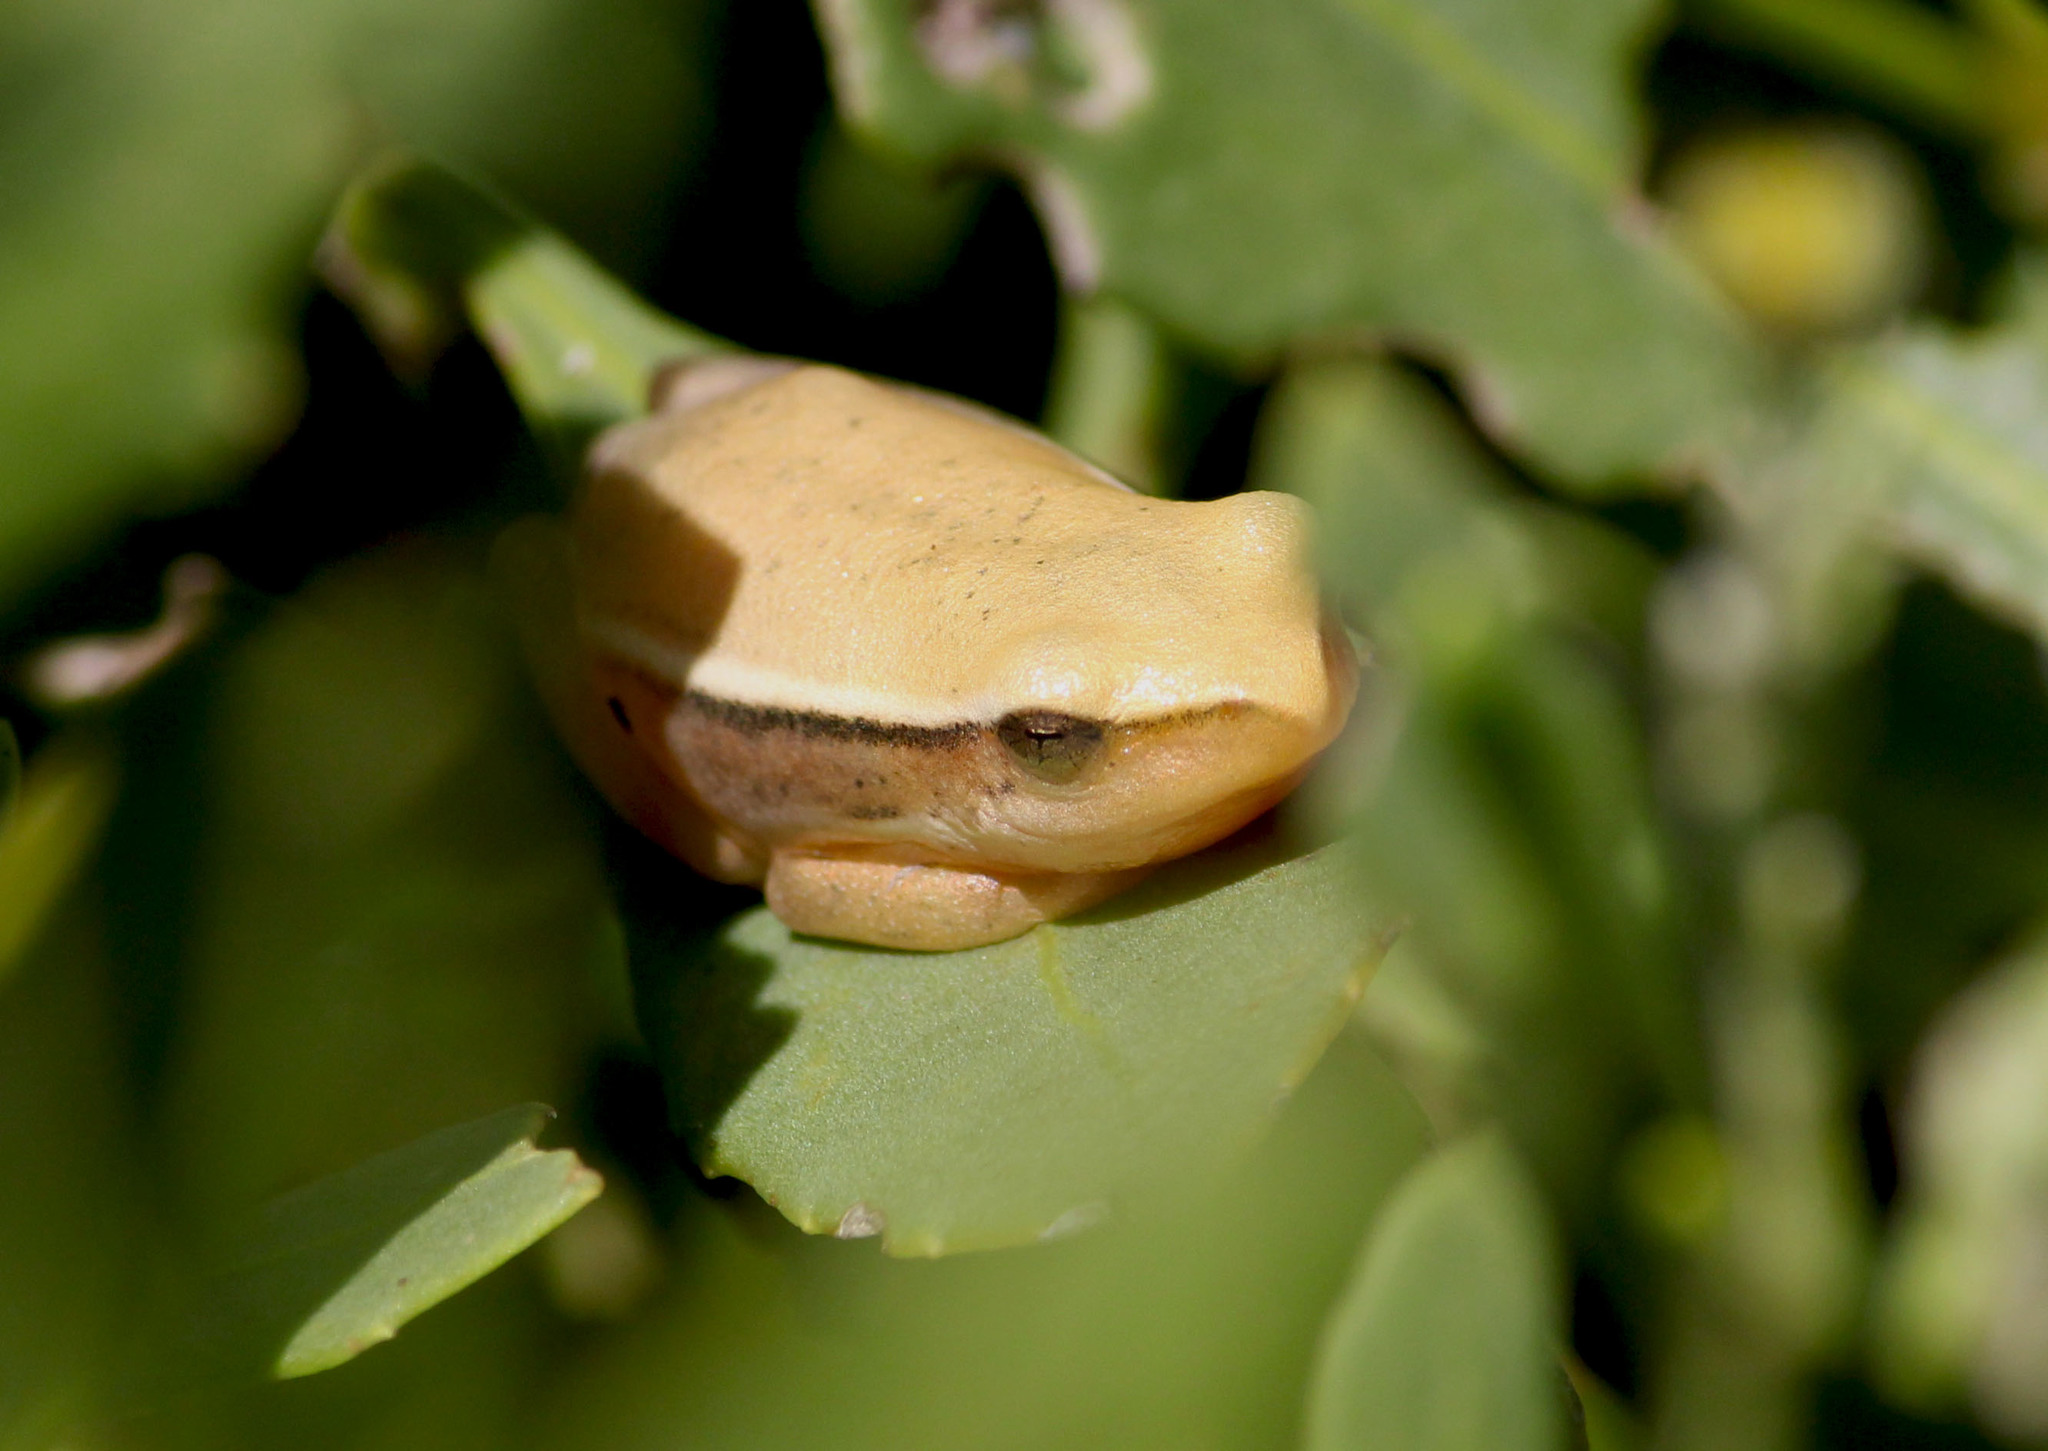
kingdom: Animalia
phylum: Chordata
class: Amphibia
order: Anura
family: Hyperoliidae
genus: Hyperolius
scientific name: Hyperolius horstockii
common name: Arum lily frog
